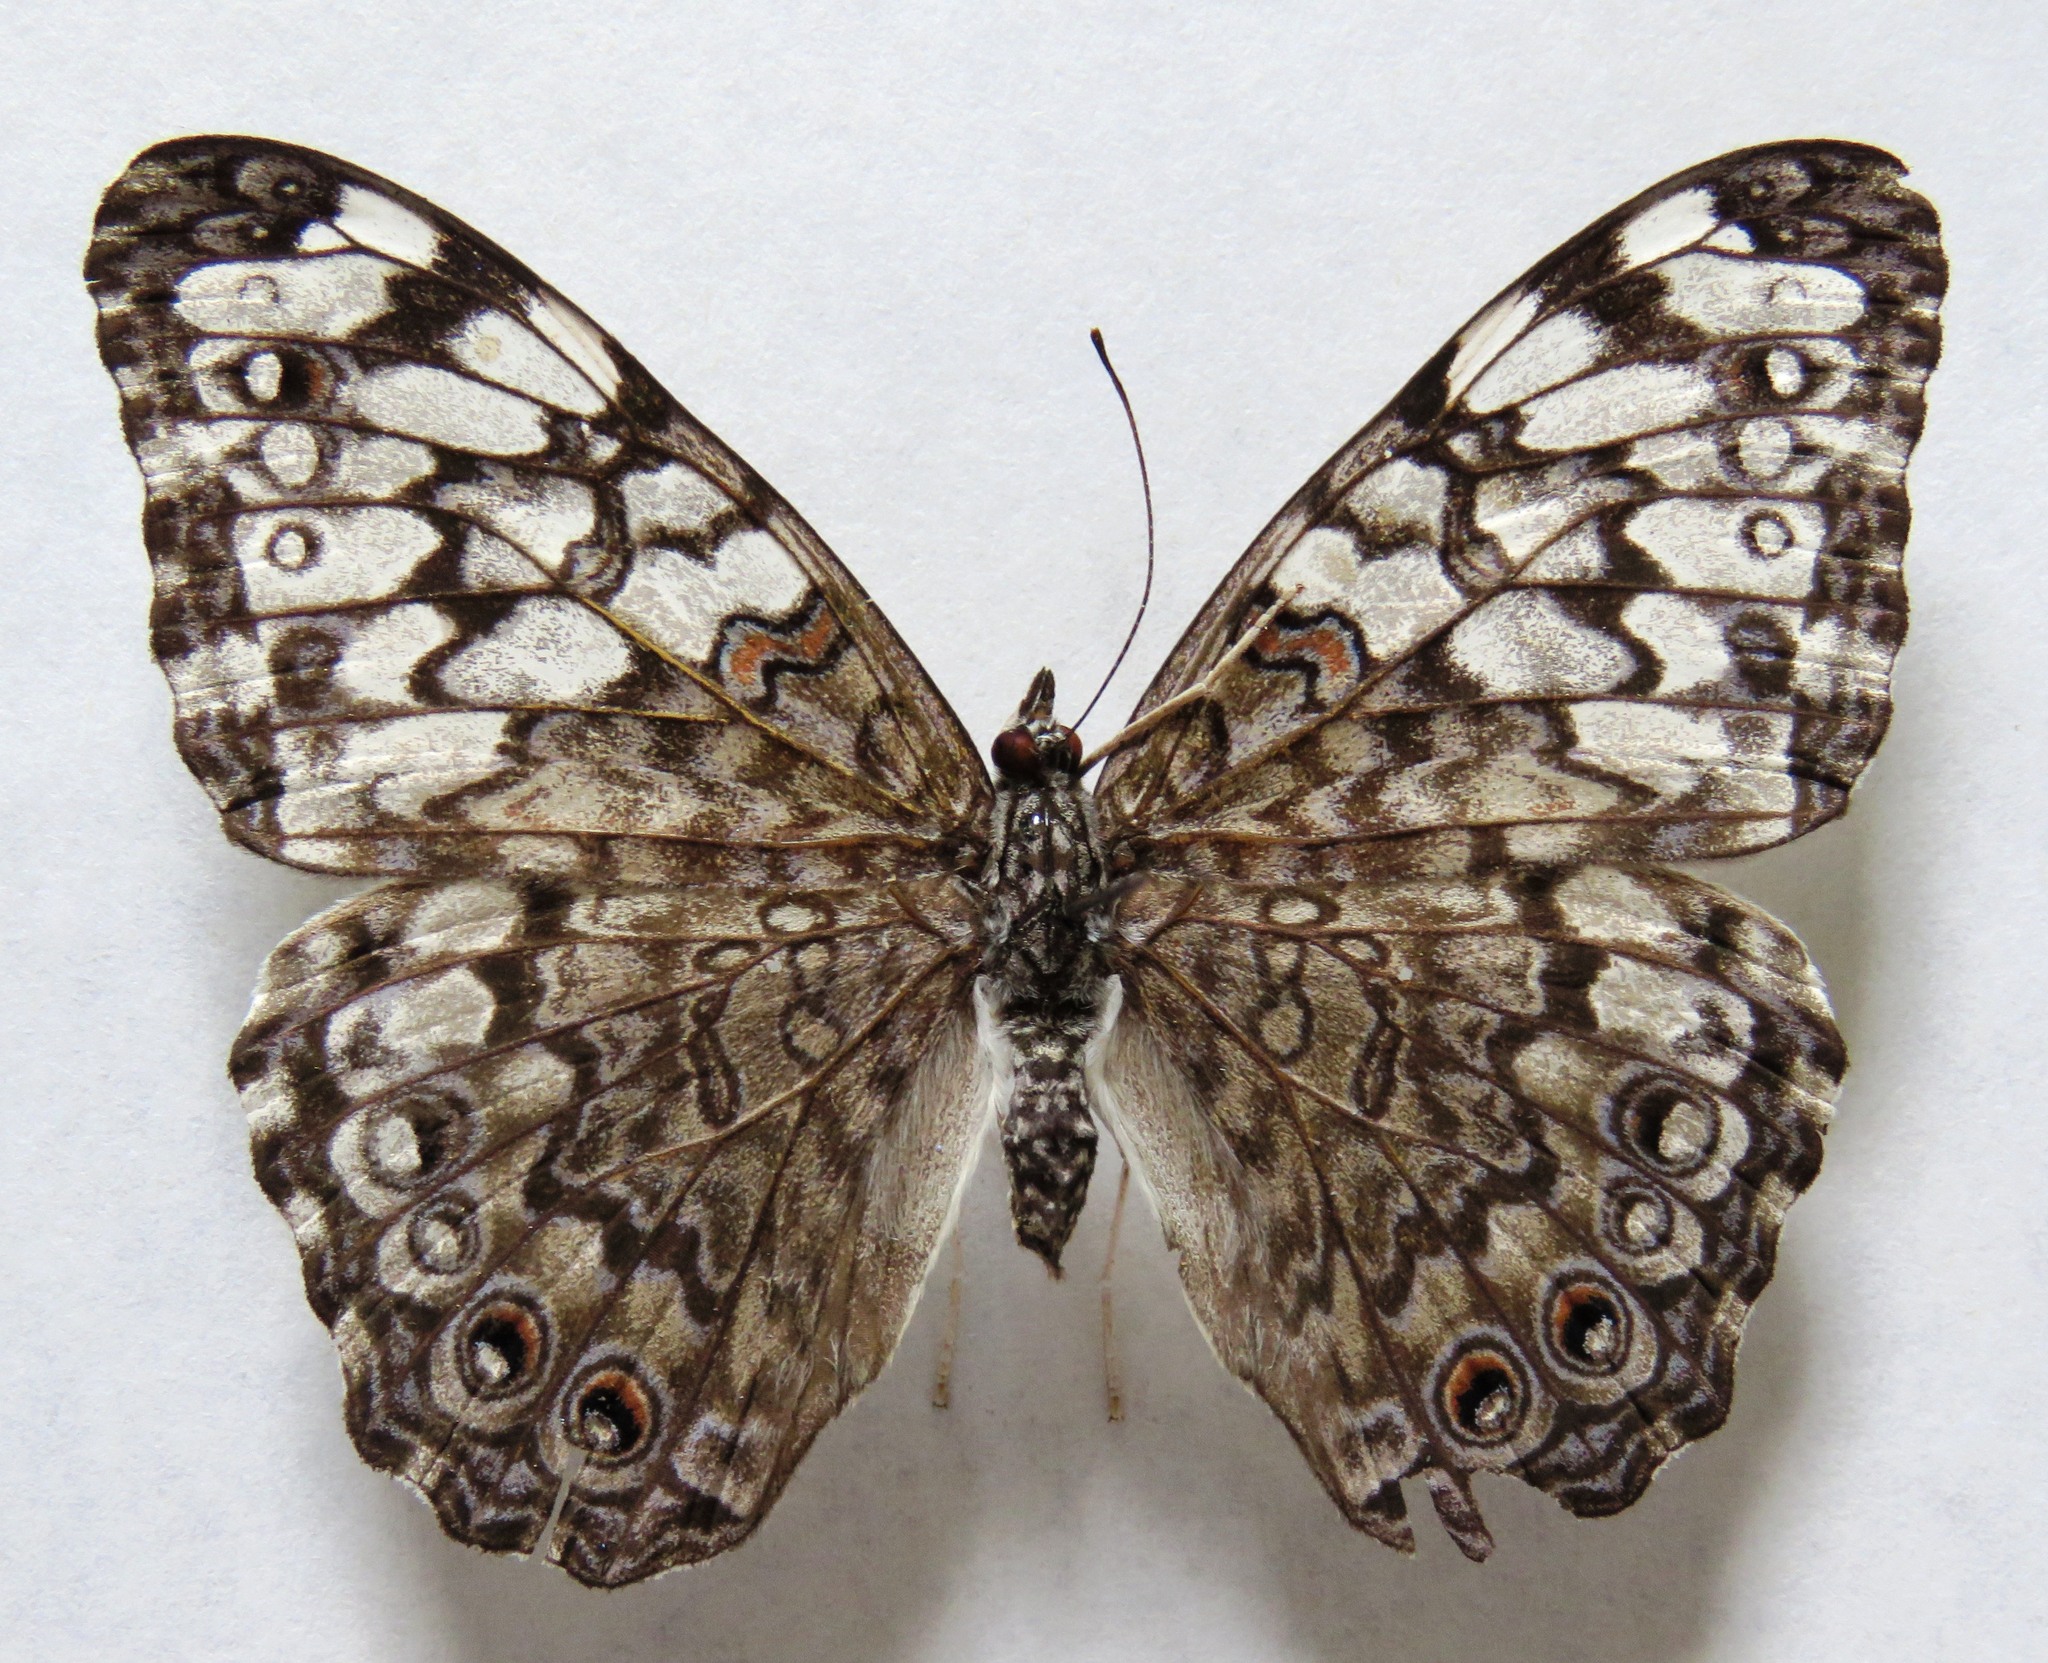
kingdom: Animalia
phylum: Arthropoda
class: Insecta
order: Lepidoptera
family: Nymphalidae
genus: Hamadryas
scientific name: Hamadryas februa
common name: Gray cracker
